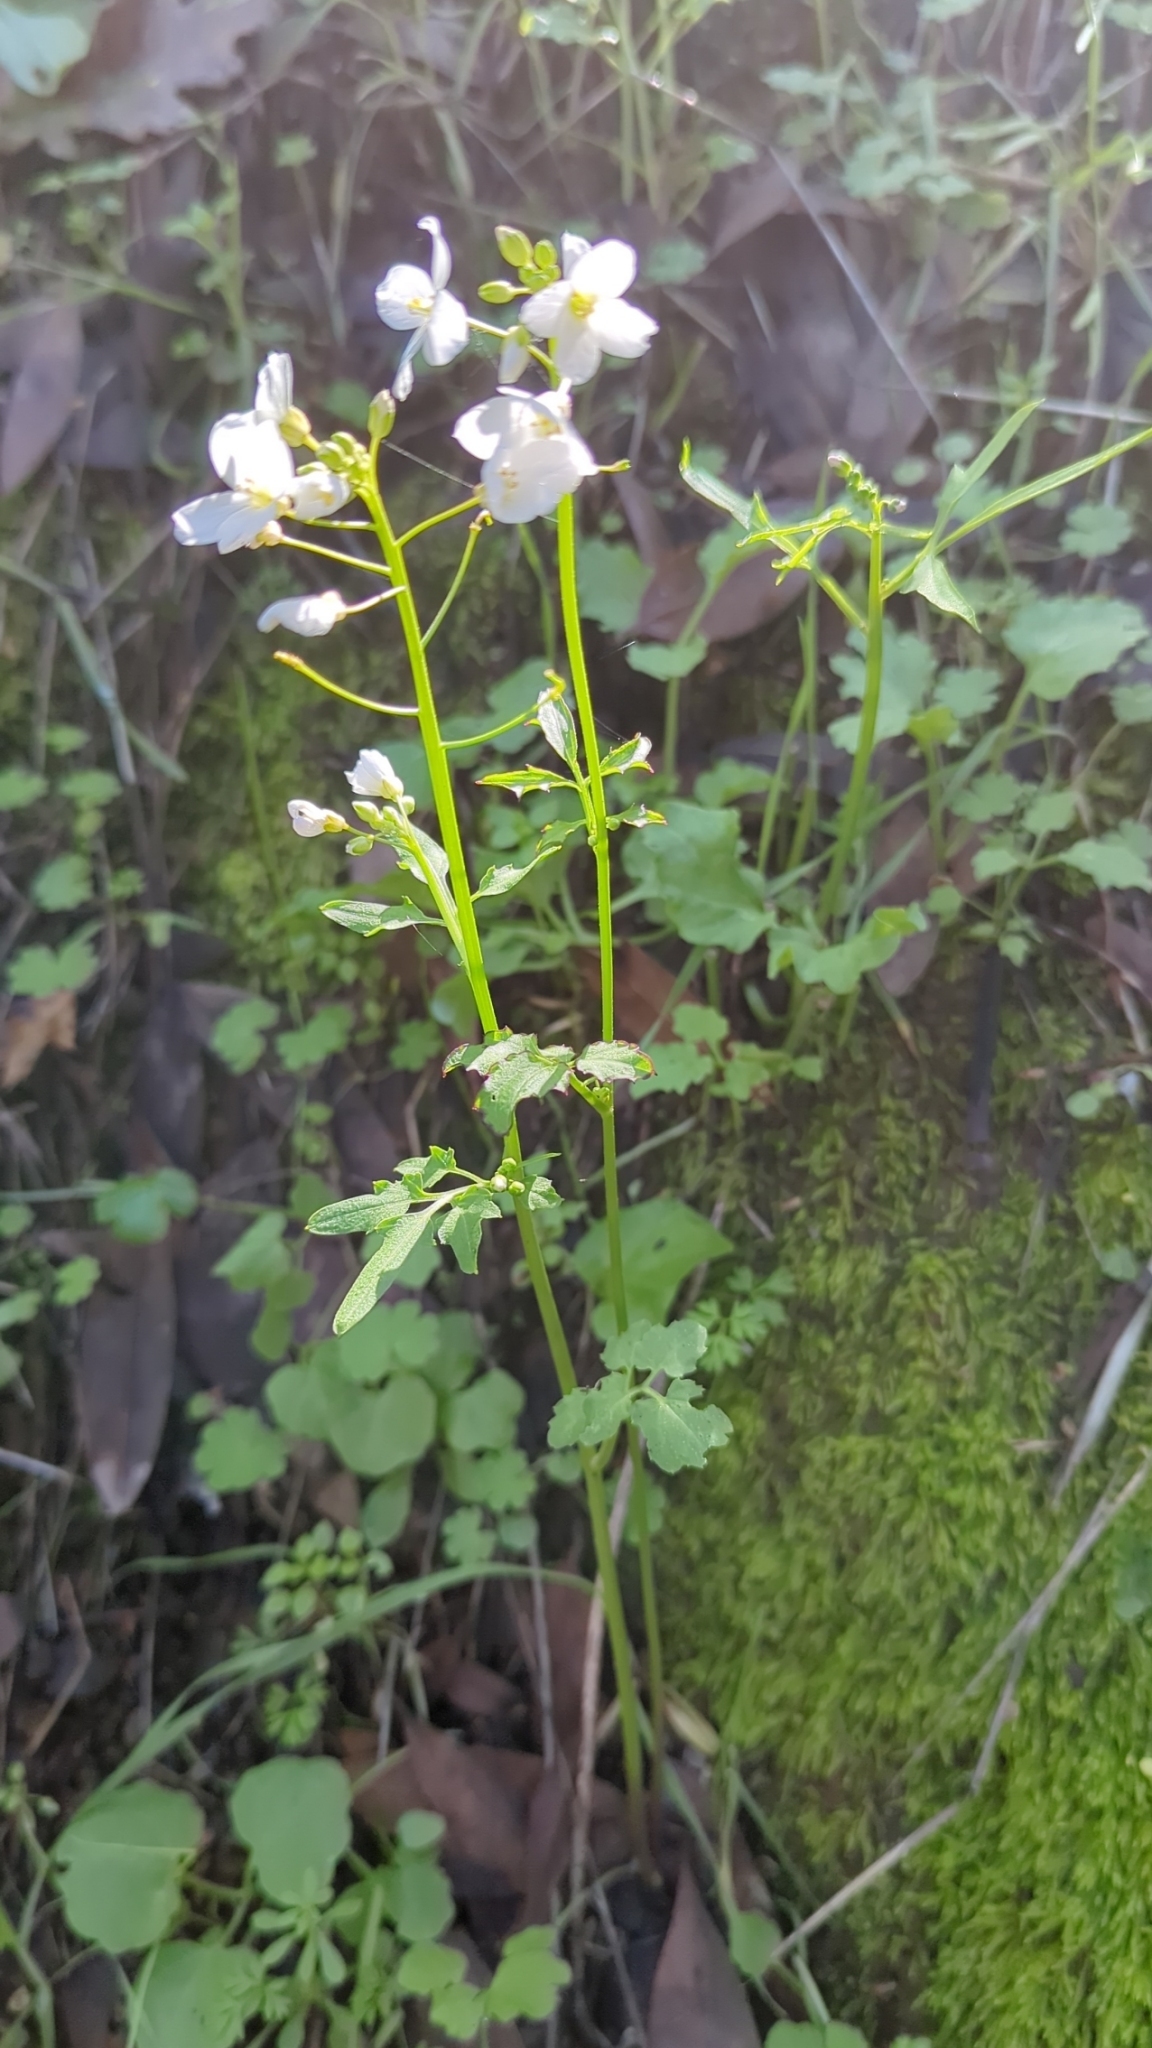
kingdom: Plantae
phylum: Tracheophyta
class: Magnoliopsida
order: Brassicales
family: Brassicaceae
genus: Cardamine
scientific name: Cardamine californica
